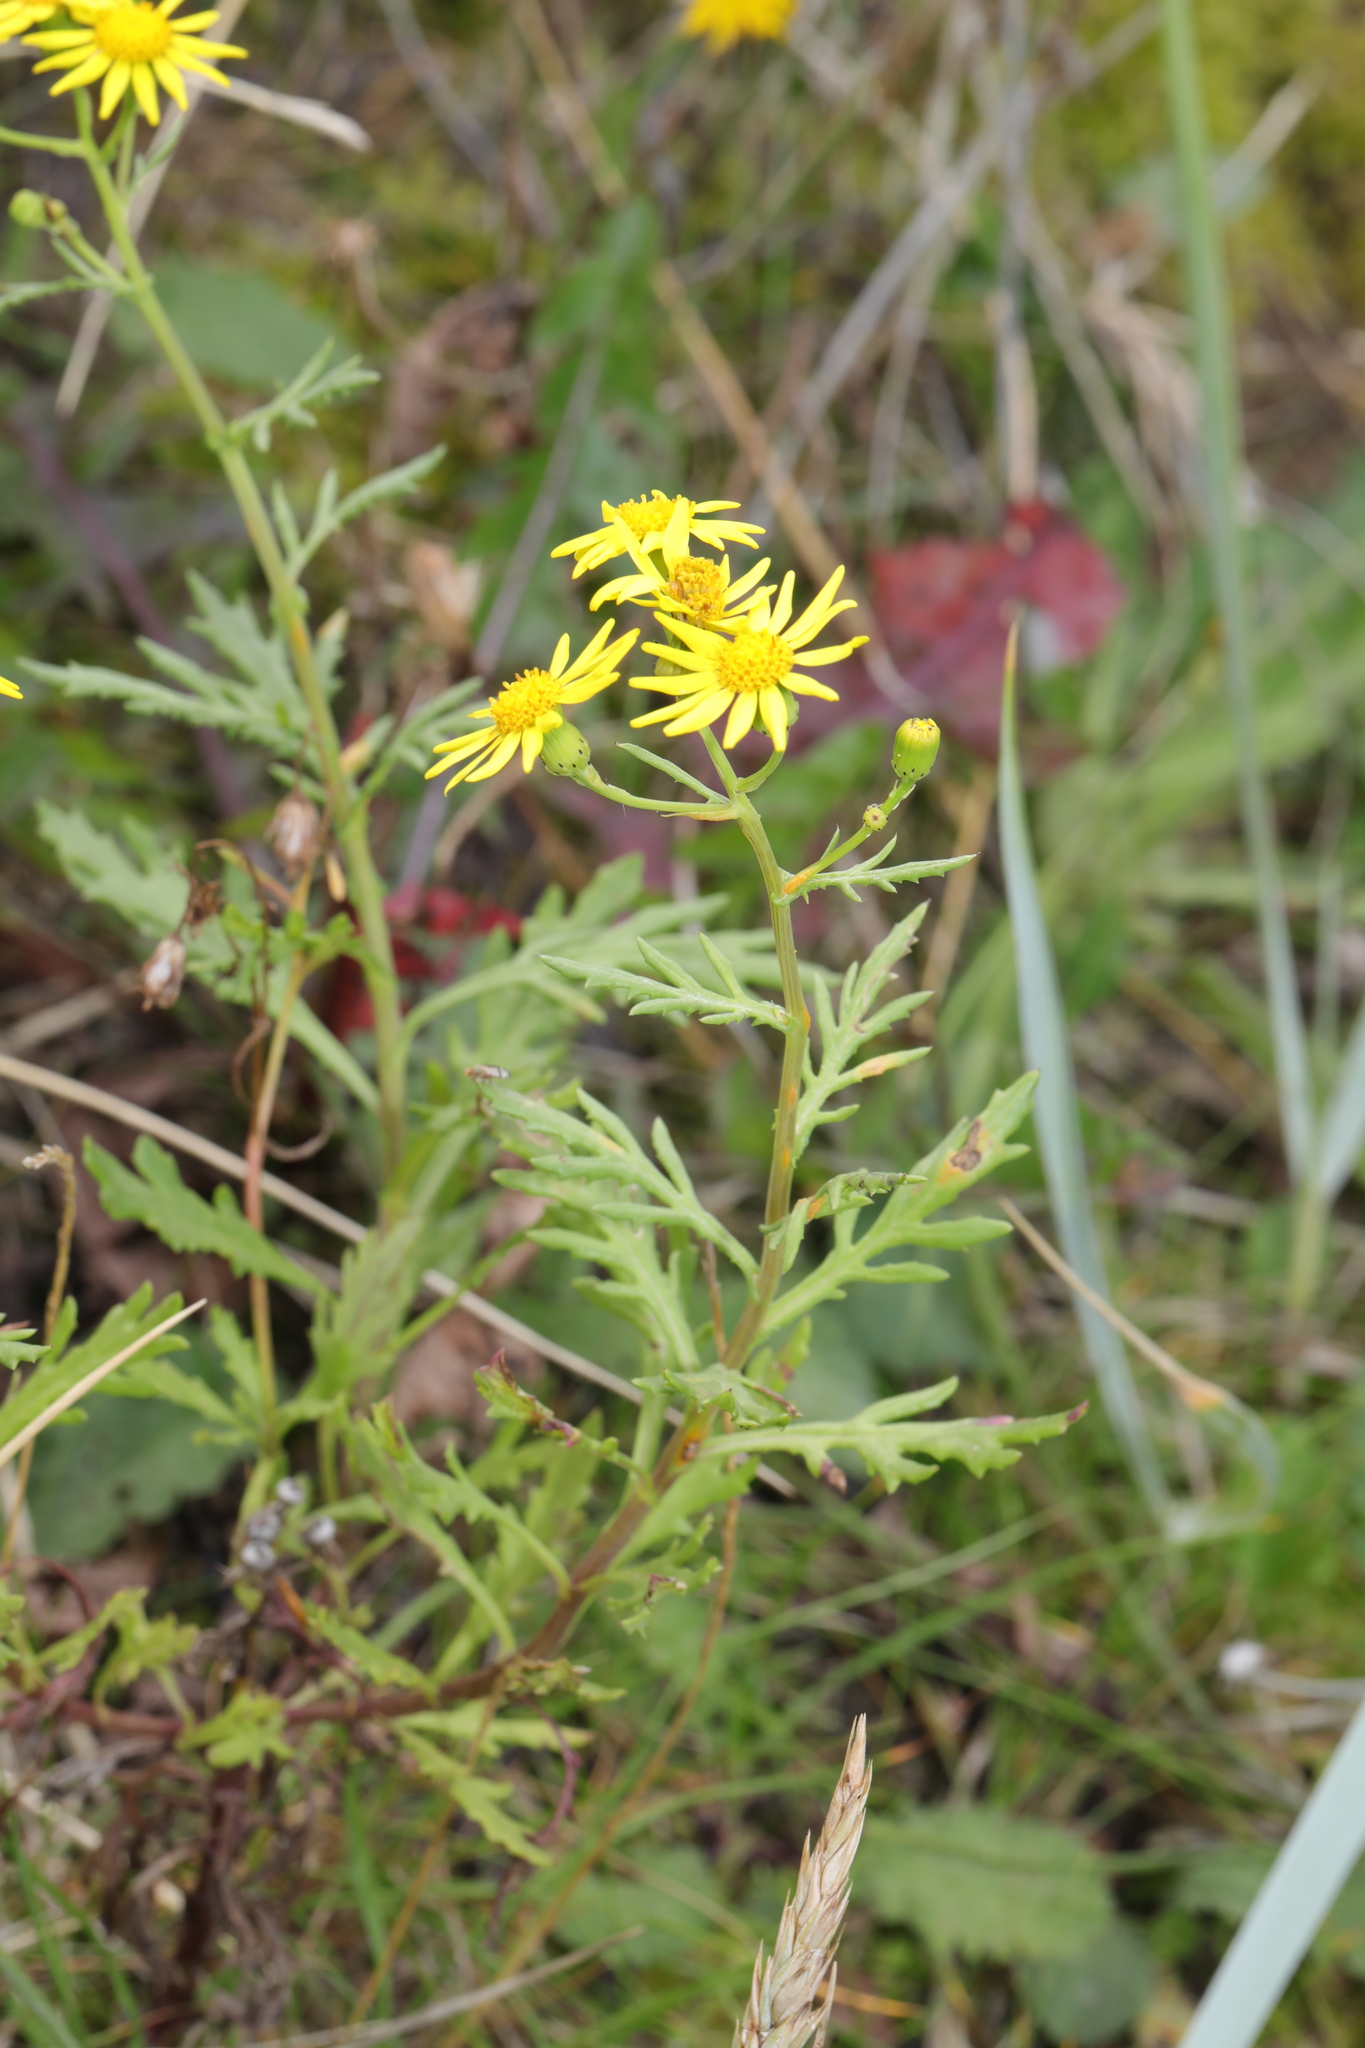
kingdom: Plantae
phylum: Tracheophyta
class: Magnoliopsida
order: Asterales
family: Asteraceae
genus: Senecio
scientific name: Senecio squalidus
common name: Oxford ragwort
